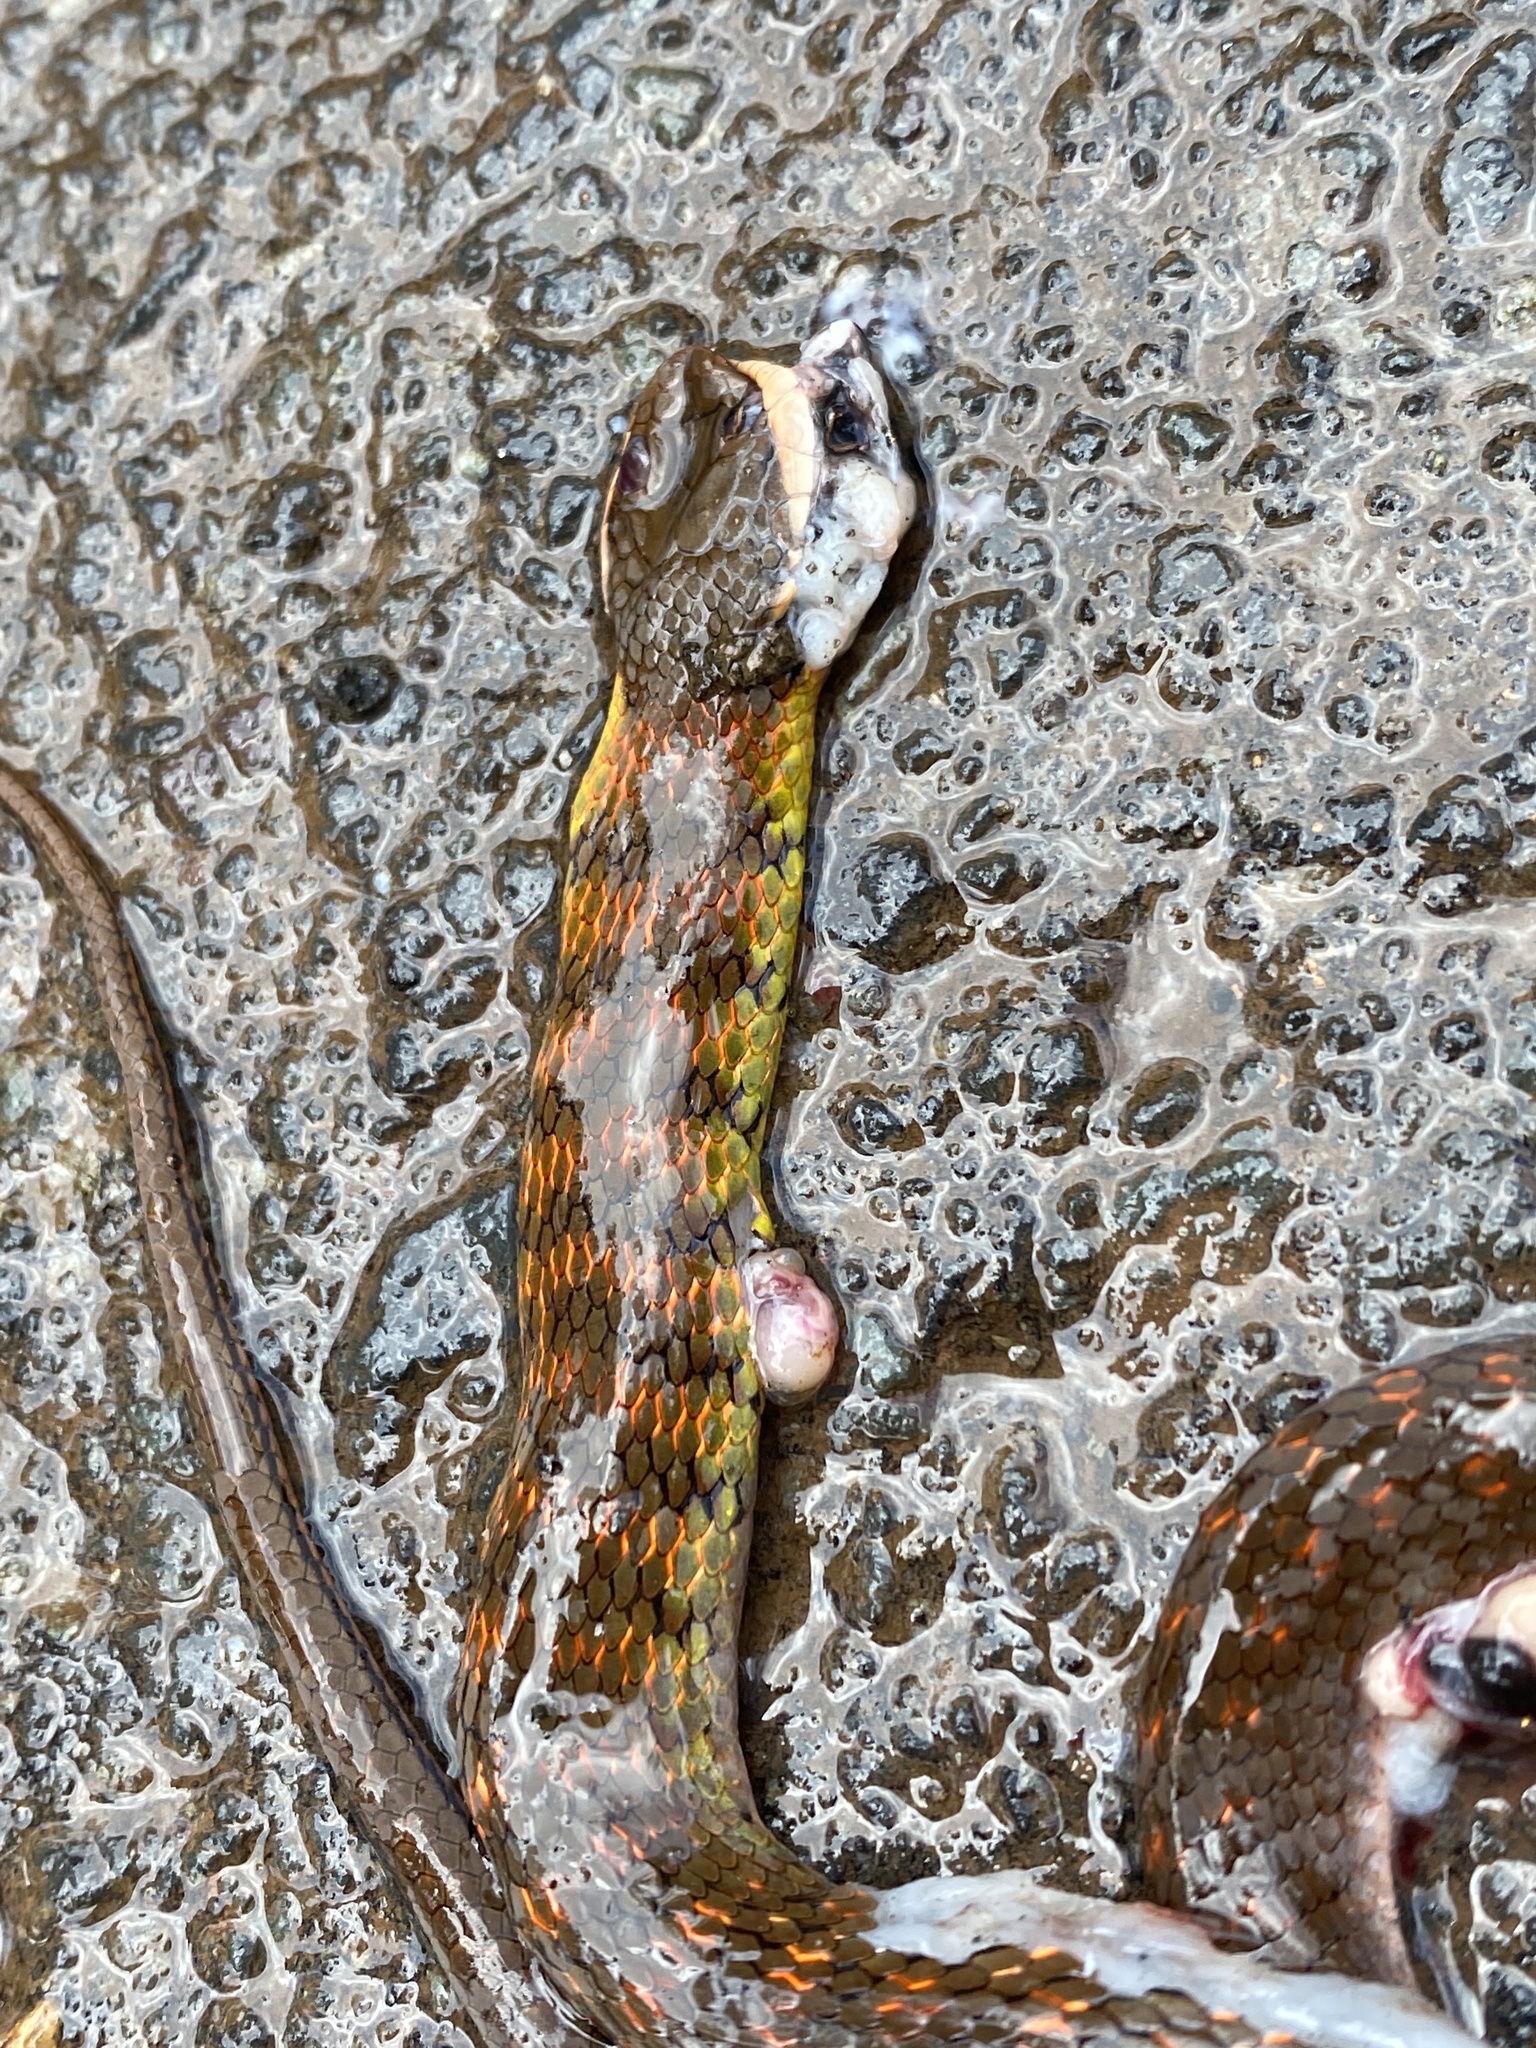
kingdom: Animalia
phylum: Chordata
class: Squamata
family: Colubridae
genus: Erythrolamprus
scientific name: Erythrolamprus epinephalus
